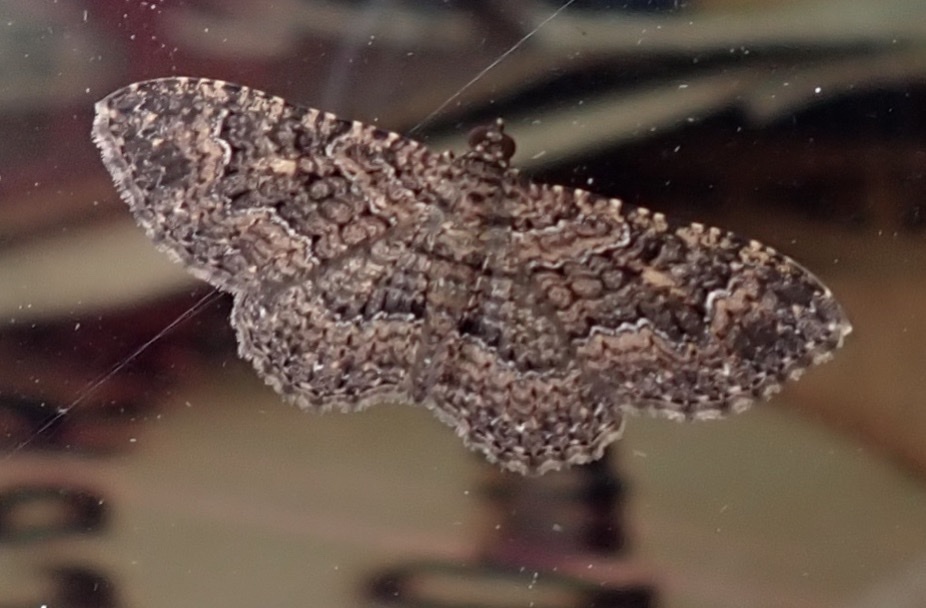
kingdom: Animalia
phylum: Arthropoda
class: Insecta
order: Lepidoptera
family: Geometridae
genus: Disclisioprocta
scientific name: Disclisioprocta stellata
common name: Somber carpet
